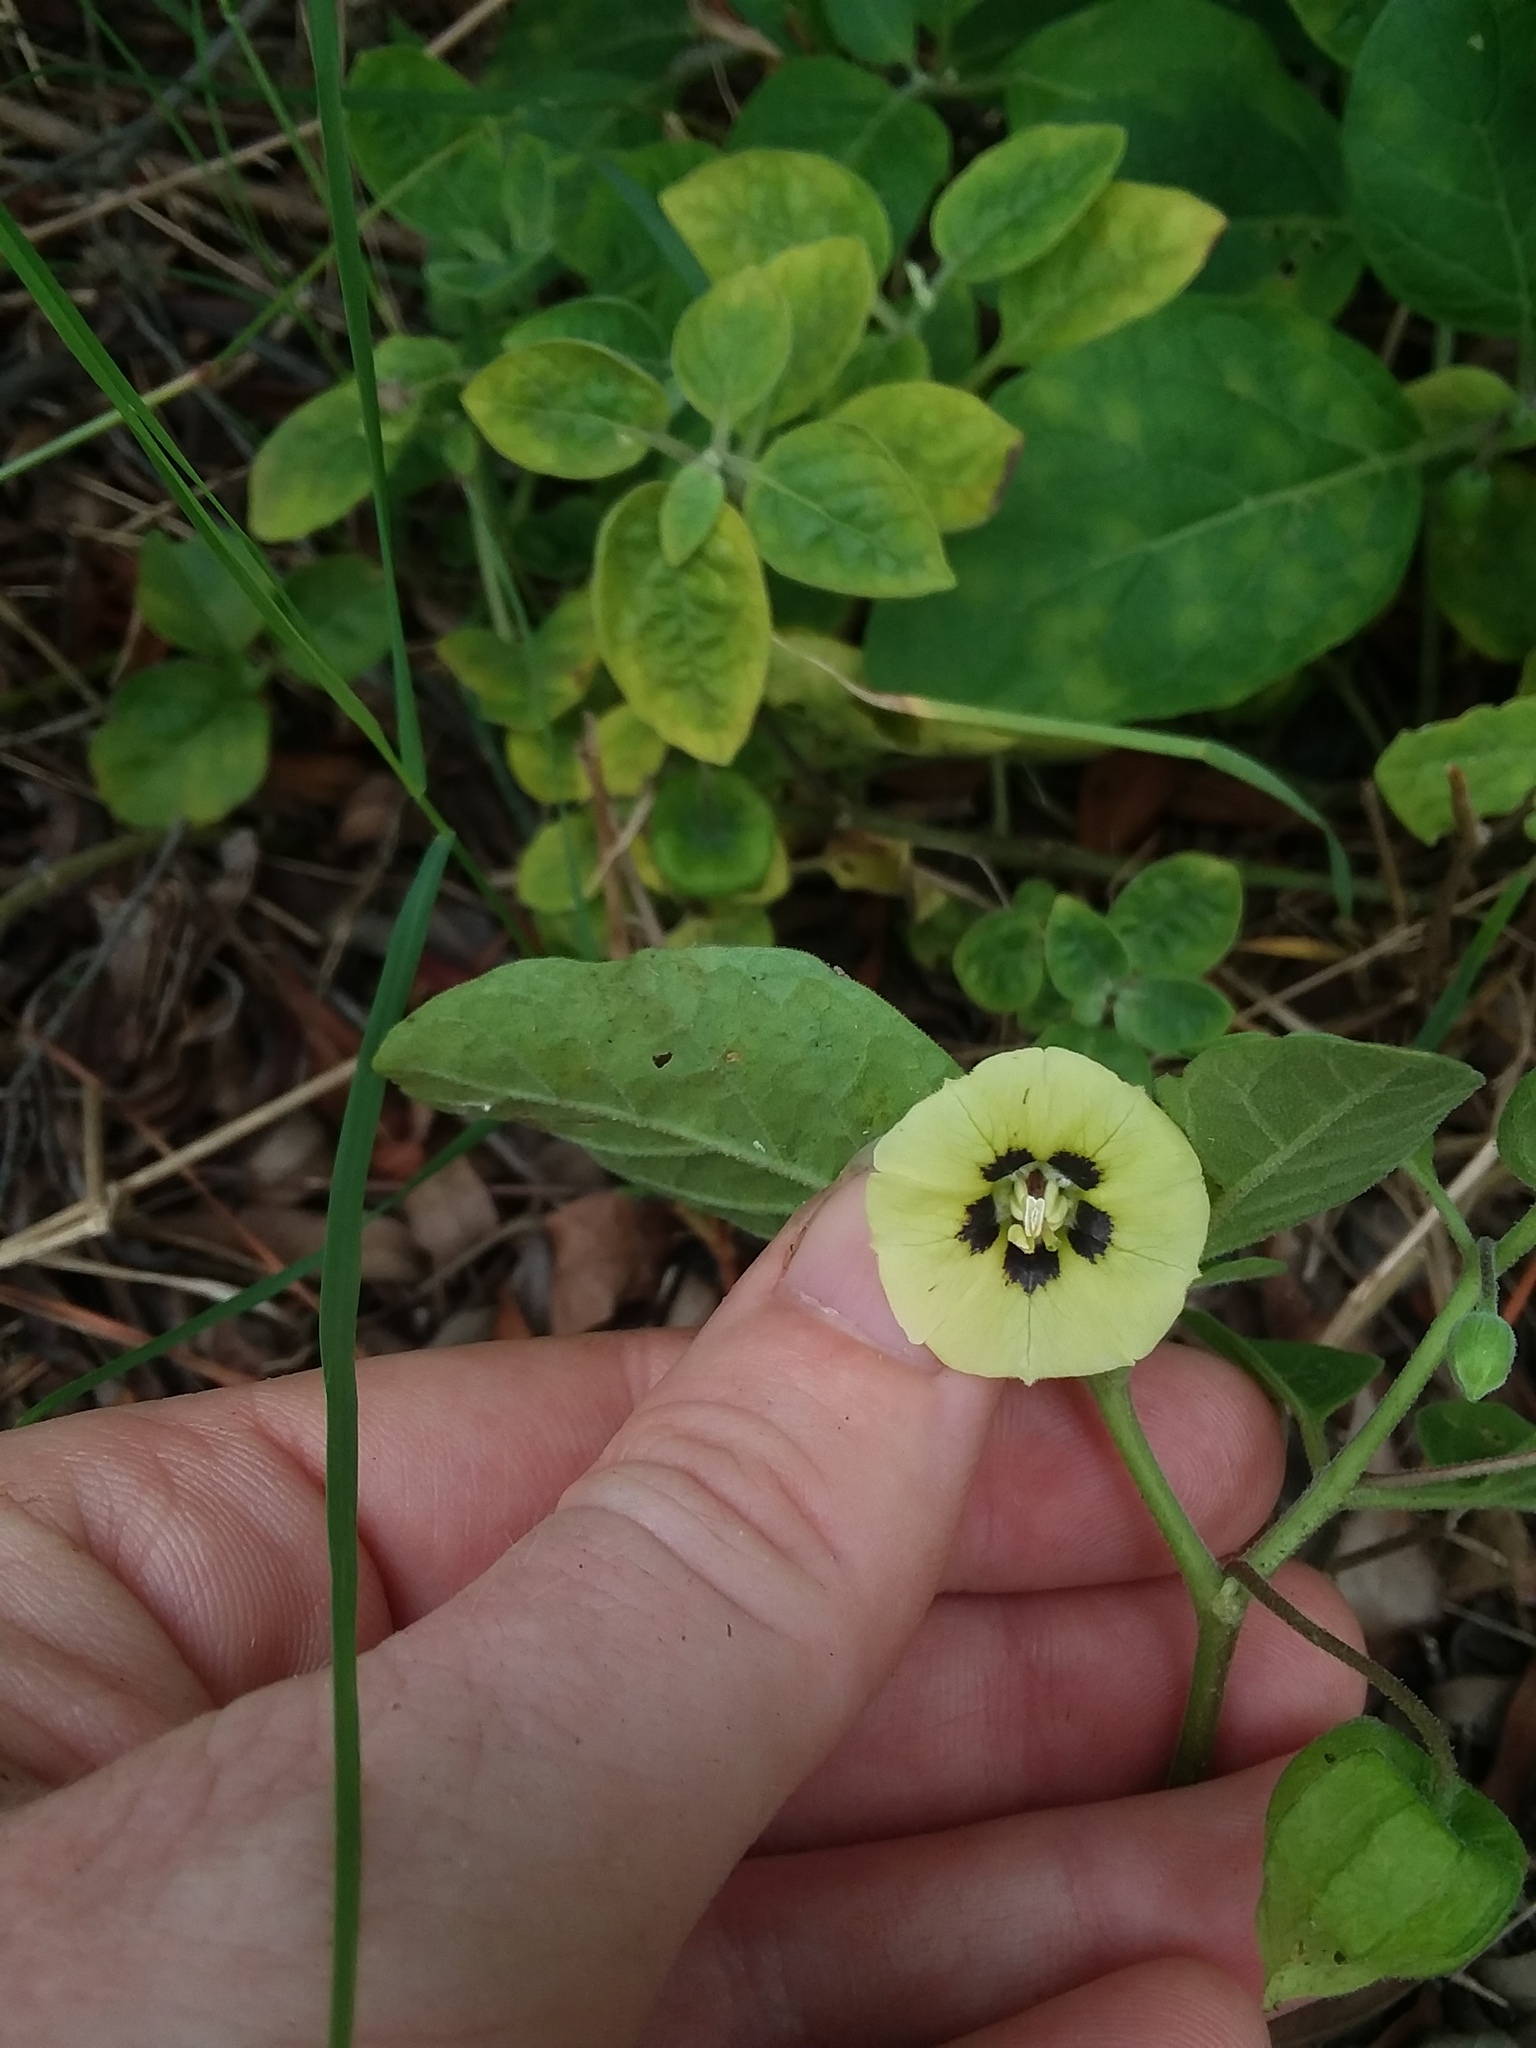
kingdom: Plantae
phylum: Tracheophyta
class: Magnoliopsida
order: Solanales
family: Solanaceae
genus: Physalis
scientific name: Physalis walteri
